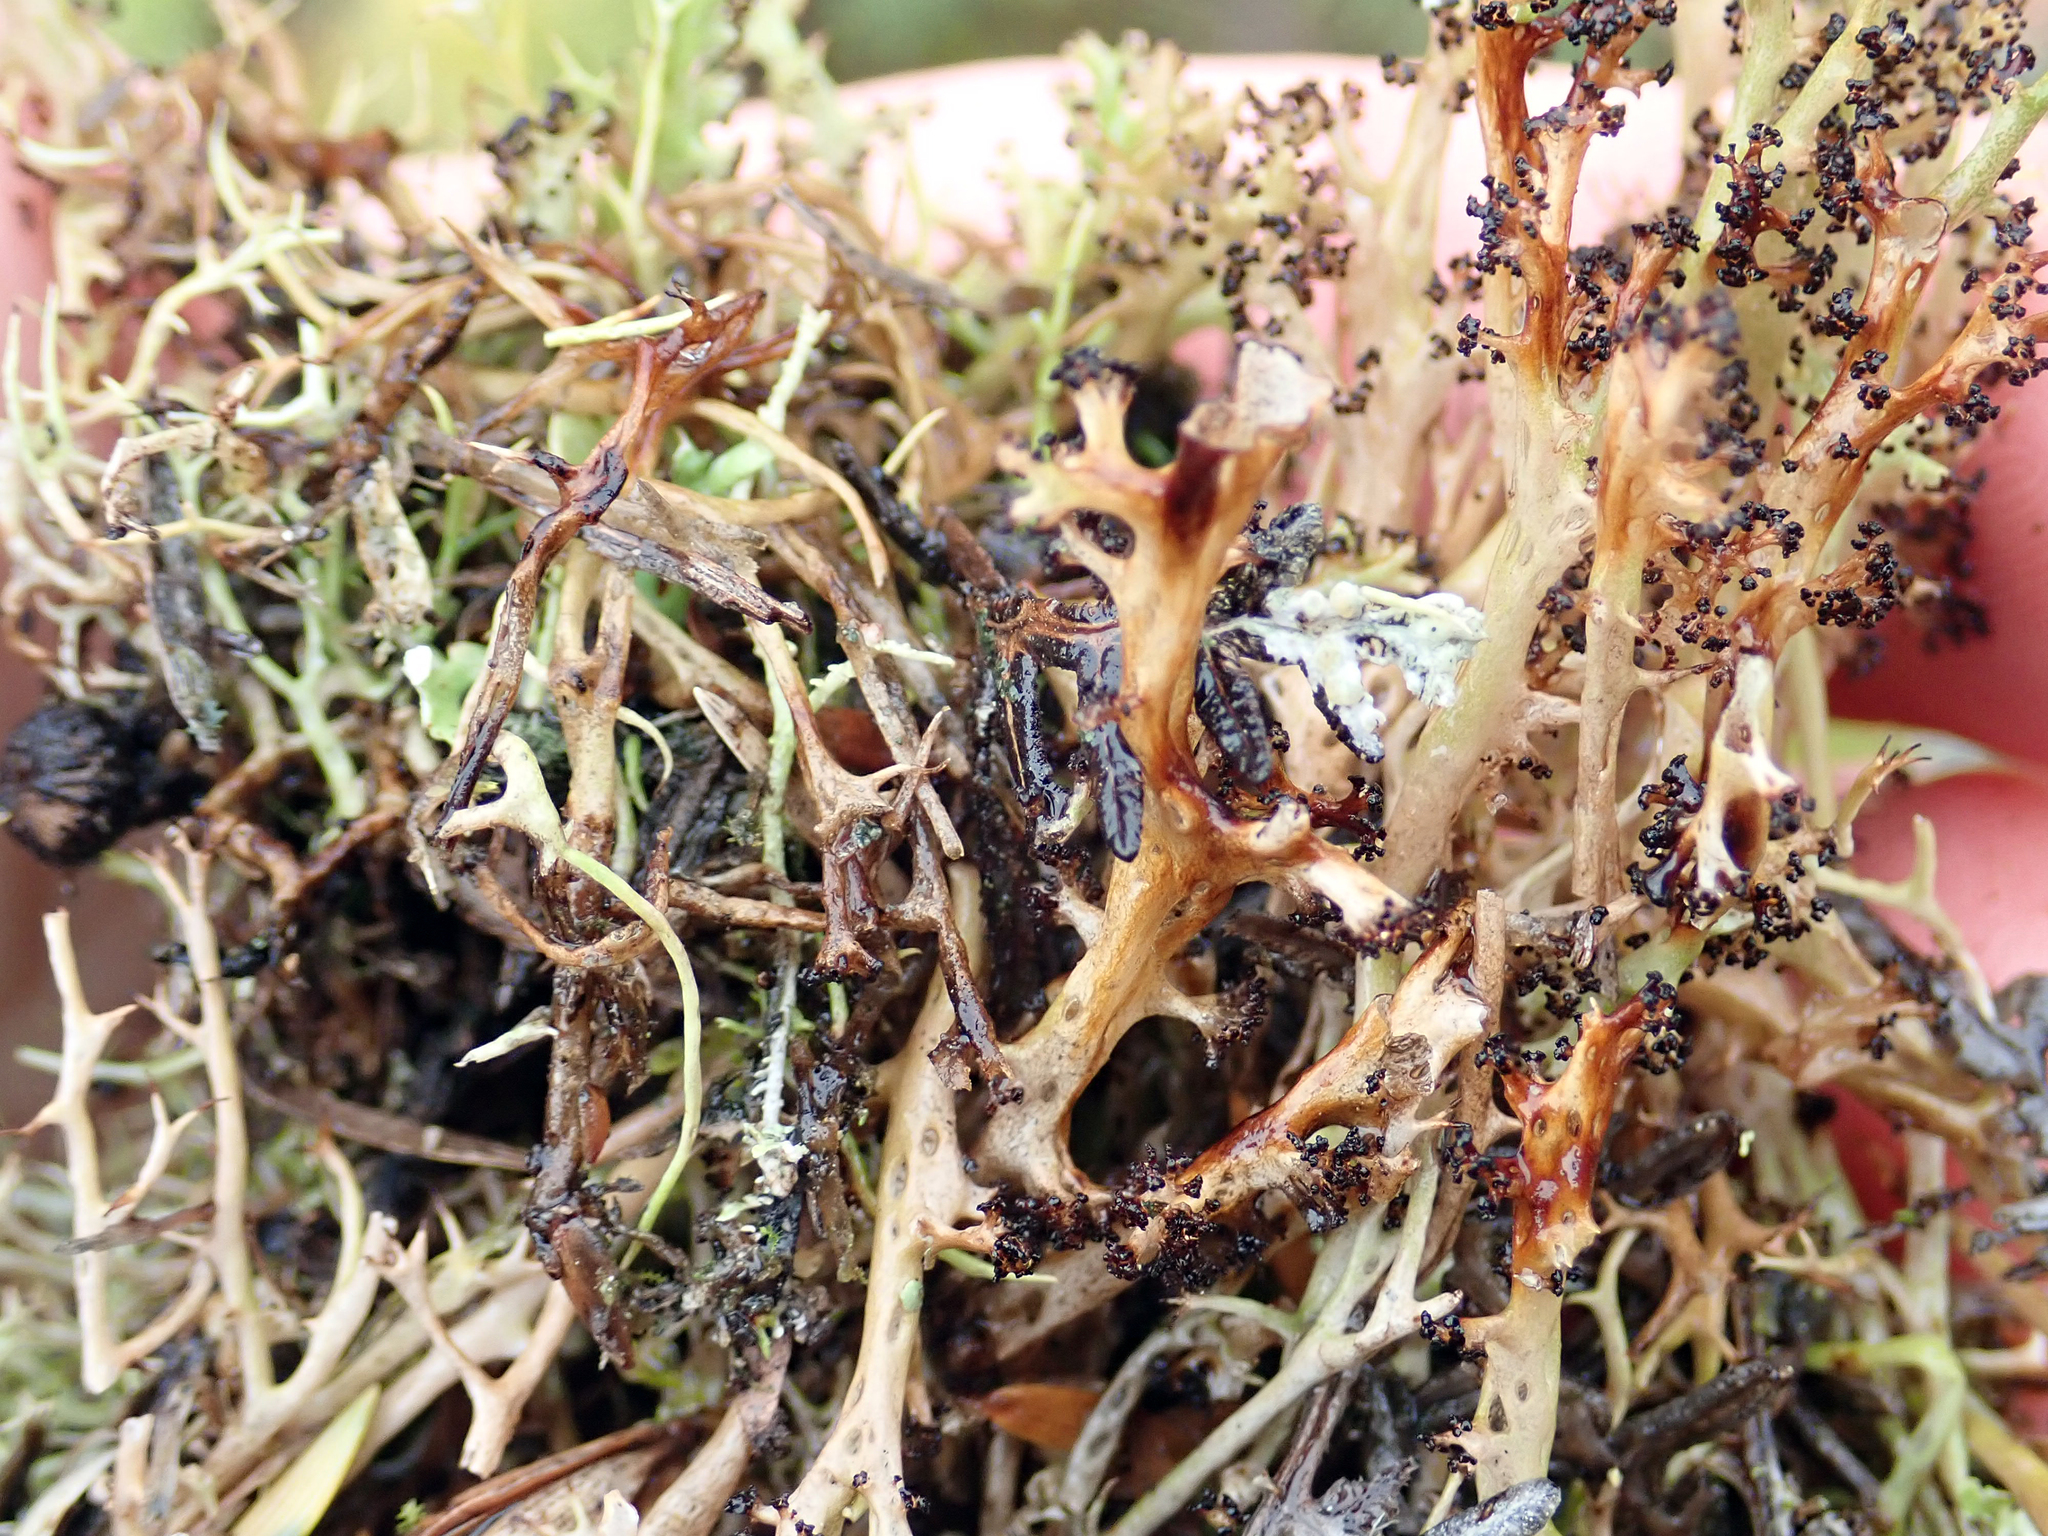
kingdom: Fungi
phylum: Ascomycota
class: Lecanoromycetes
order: Lecanorales
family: Cladoniaceae
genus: Cladia
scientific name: Cladia cryptica
